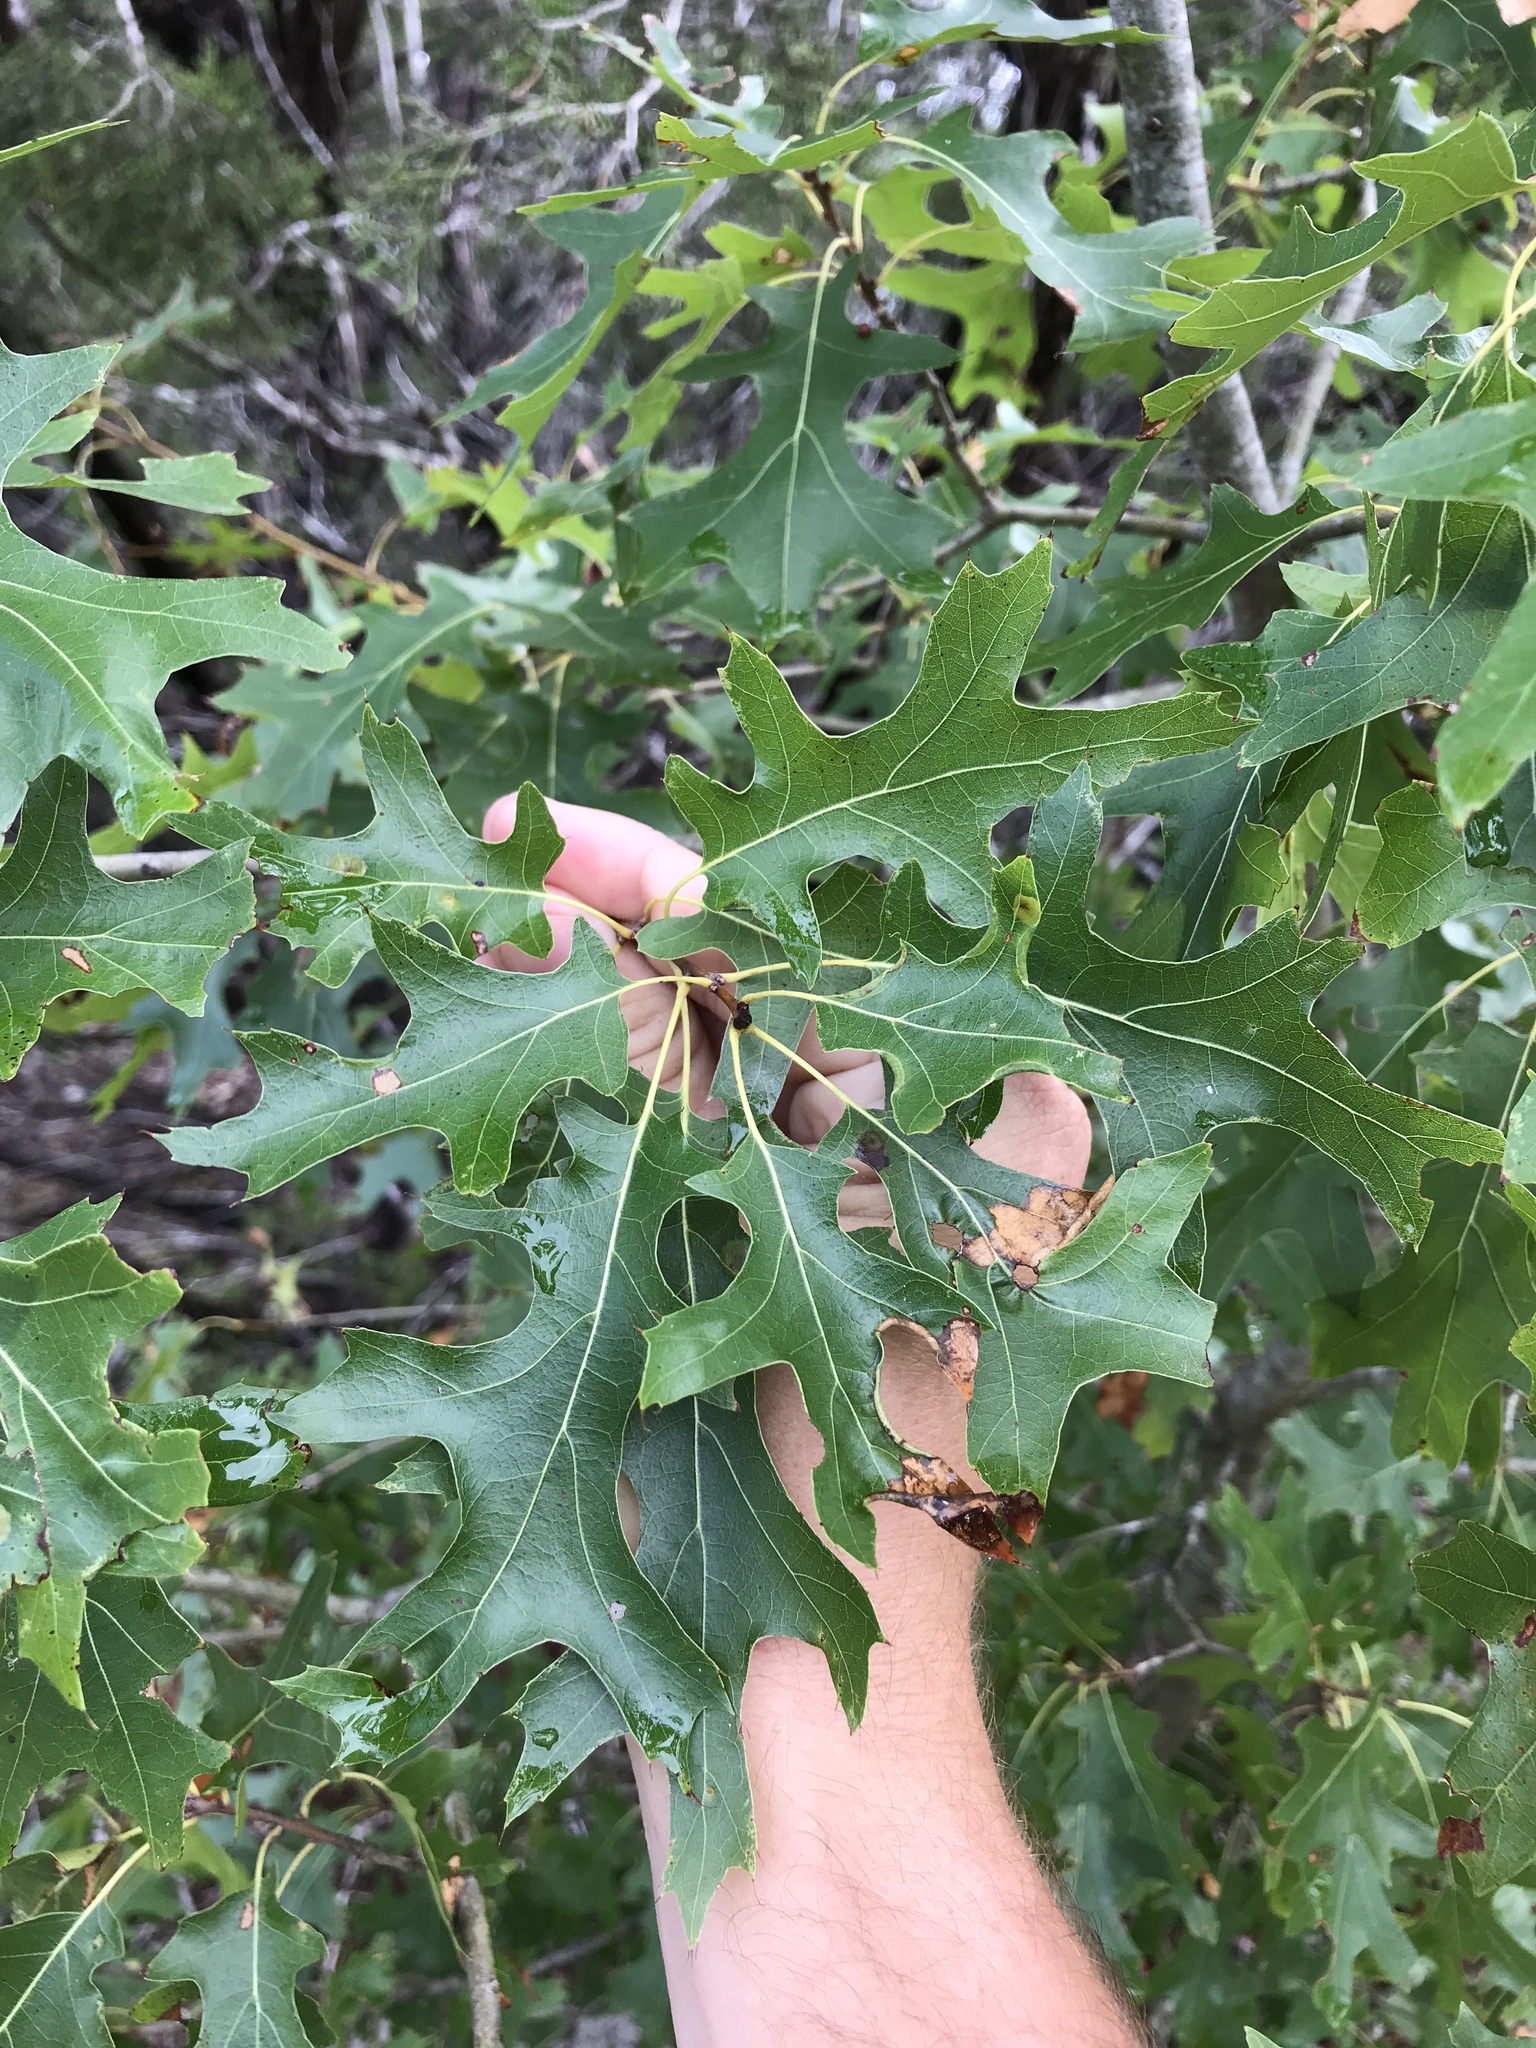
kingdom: Plantae
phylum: Tracheophyta
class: Magnoliopsida
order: Fagales
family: Fagaceae
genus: Quercus
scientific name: Quercus buckleyi
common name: Buckley oak
